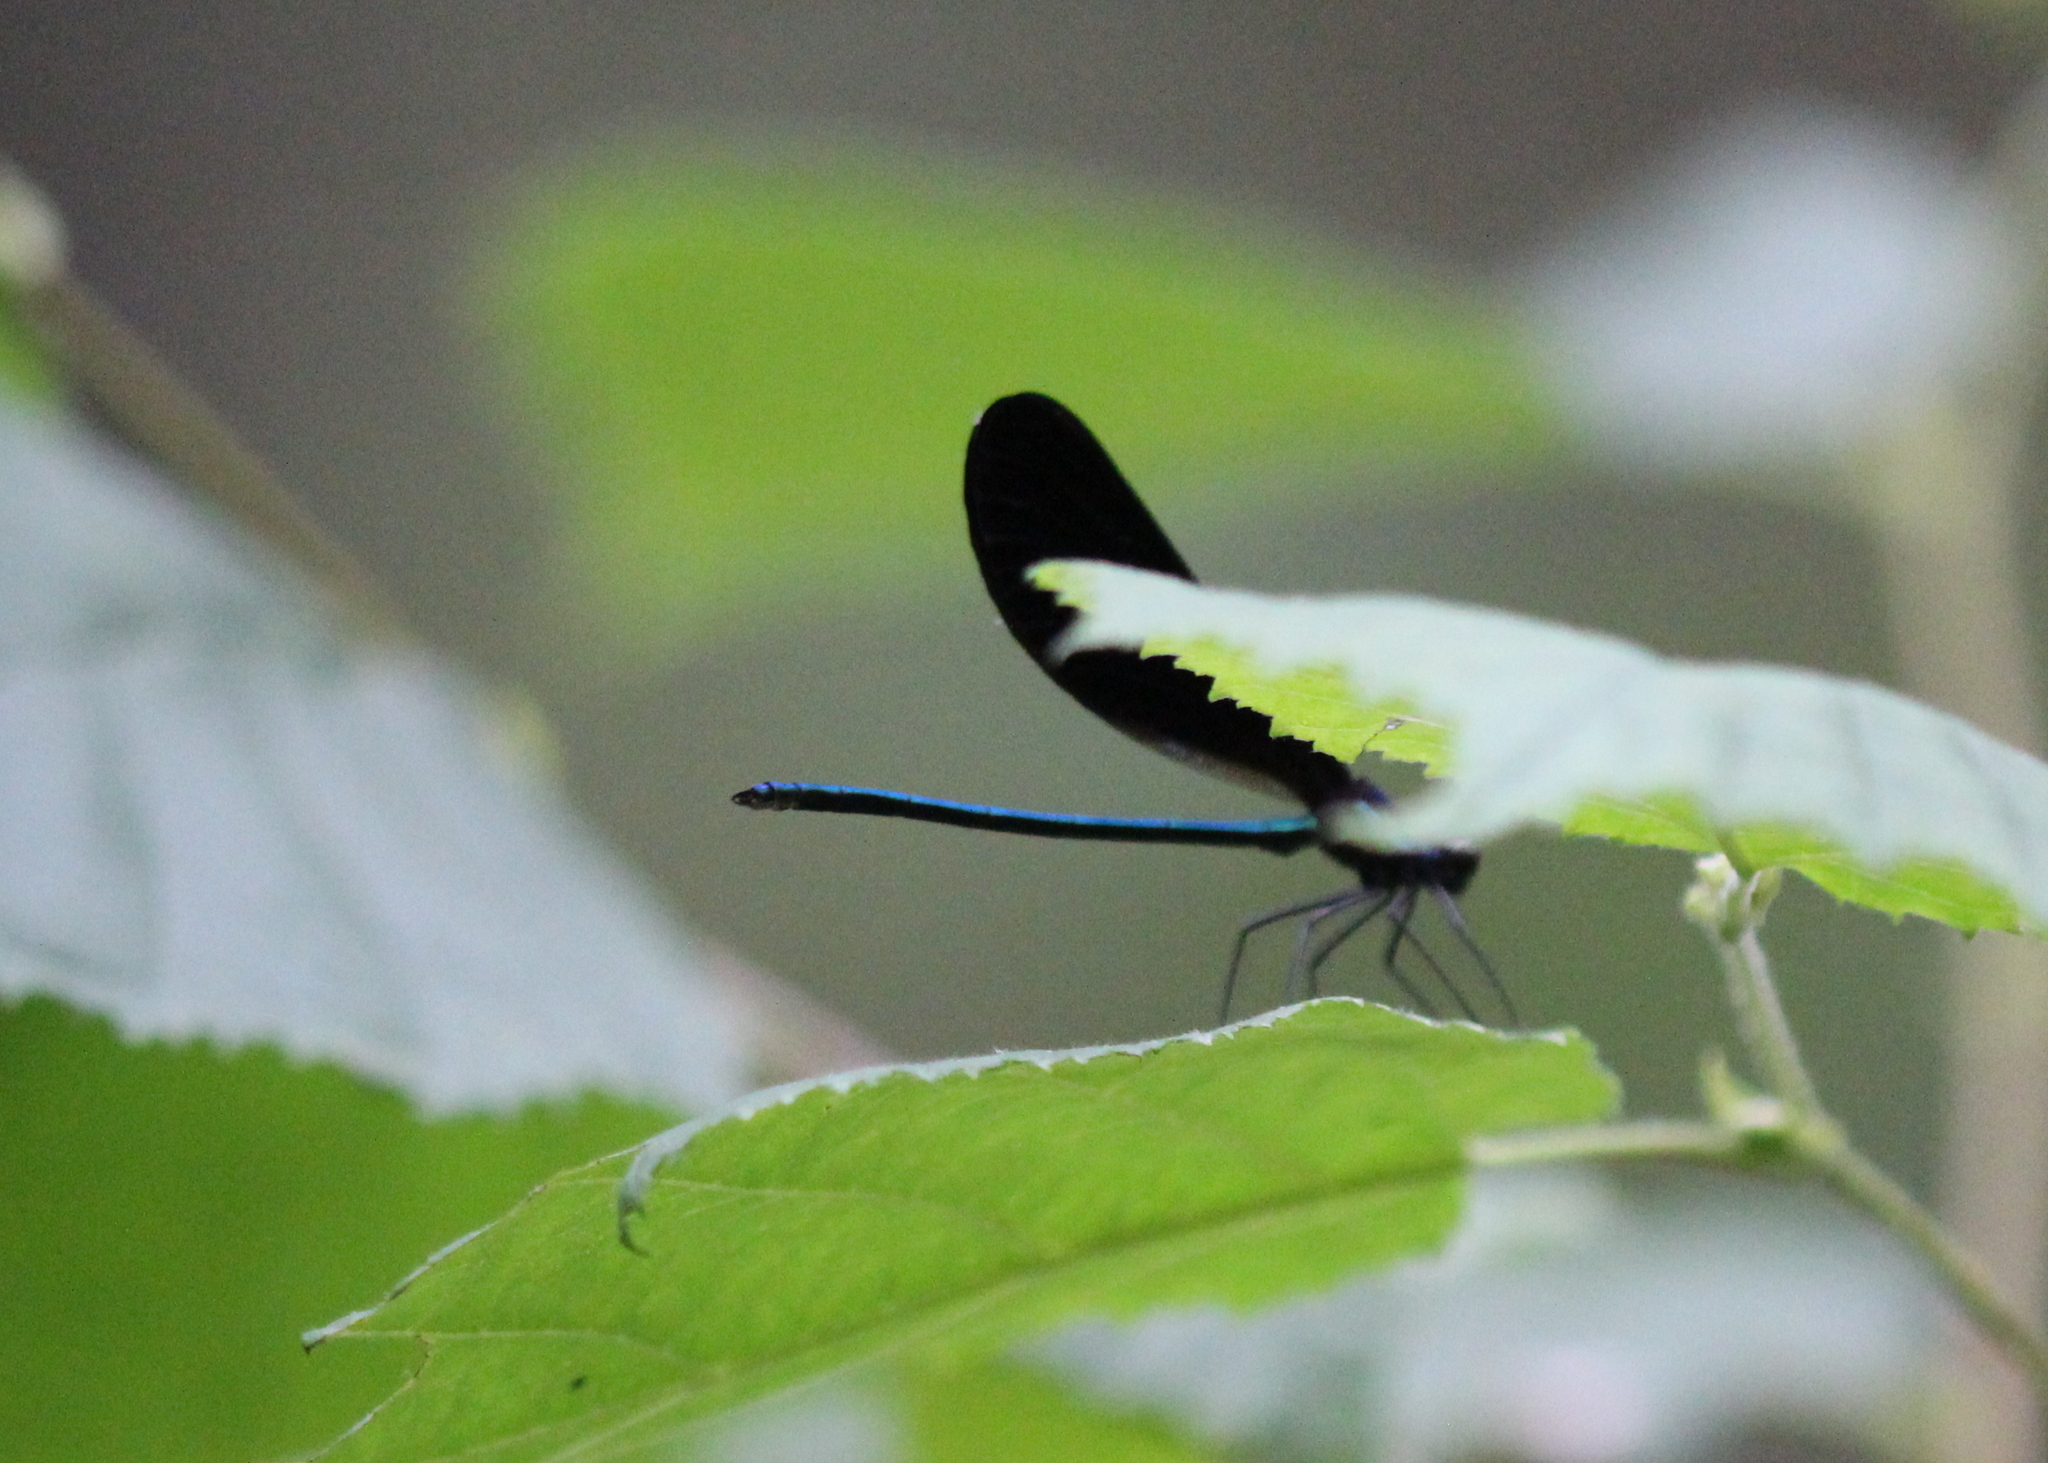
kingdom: Animalia
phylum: Arthropoda
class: Insecta
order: Odonata
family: Calopterygidae
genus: Calopteryx
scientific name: Calopteryx maculata
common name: Ebony jewelwing
